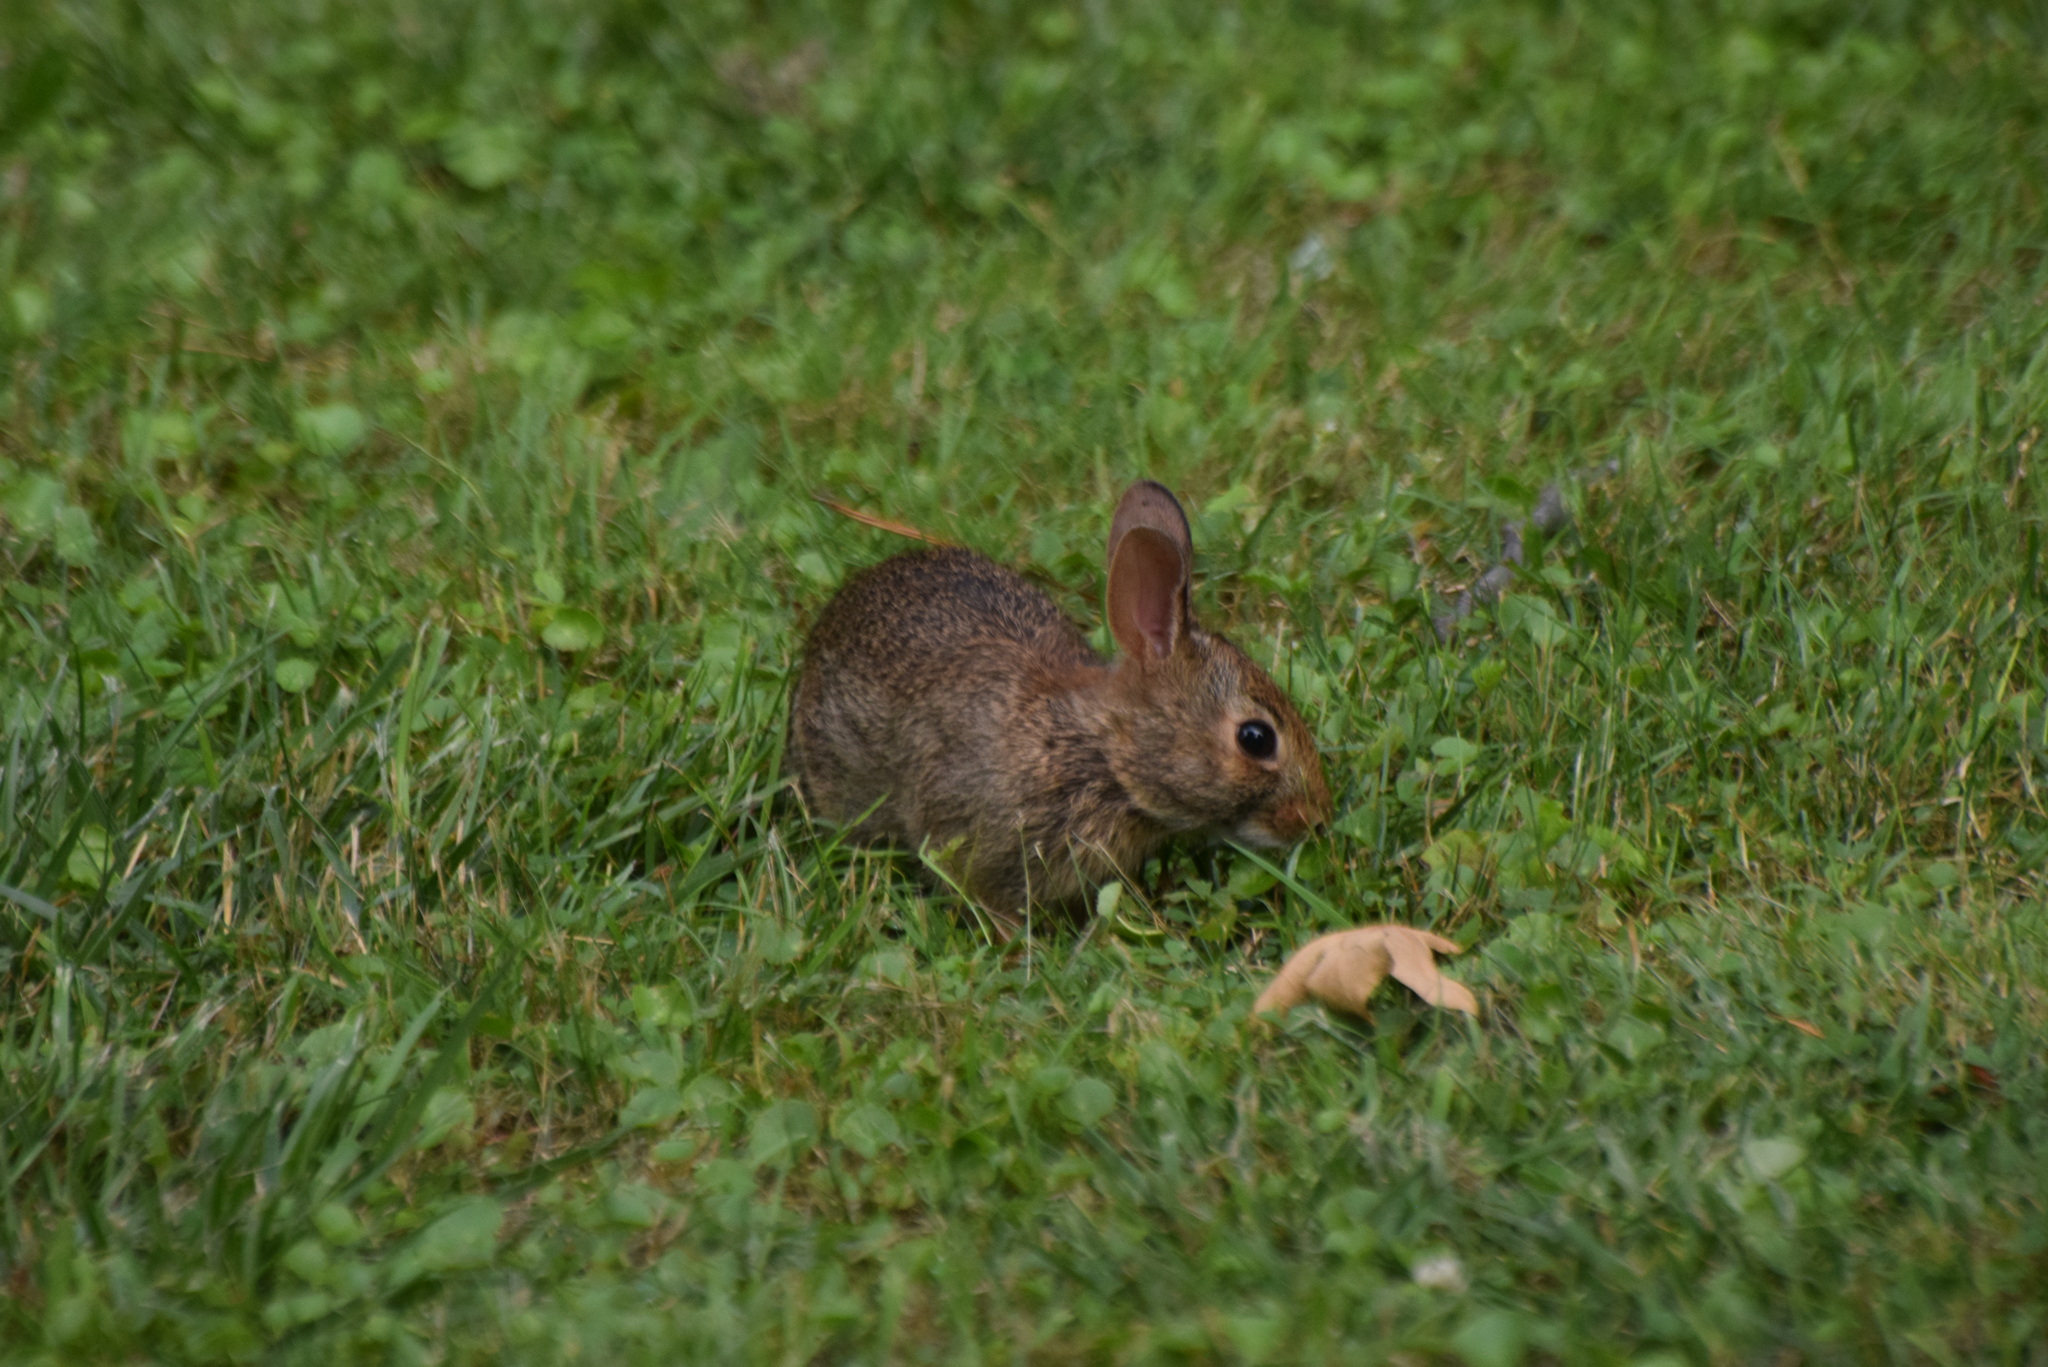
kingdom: Animalia
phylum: Chordata
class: Mammalia
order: Lagomorpha
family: Leporidae
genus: Sylvilagus
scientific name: Sylvilagus floridanus
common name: Eastern cottontail
